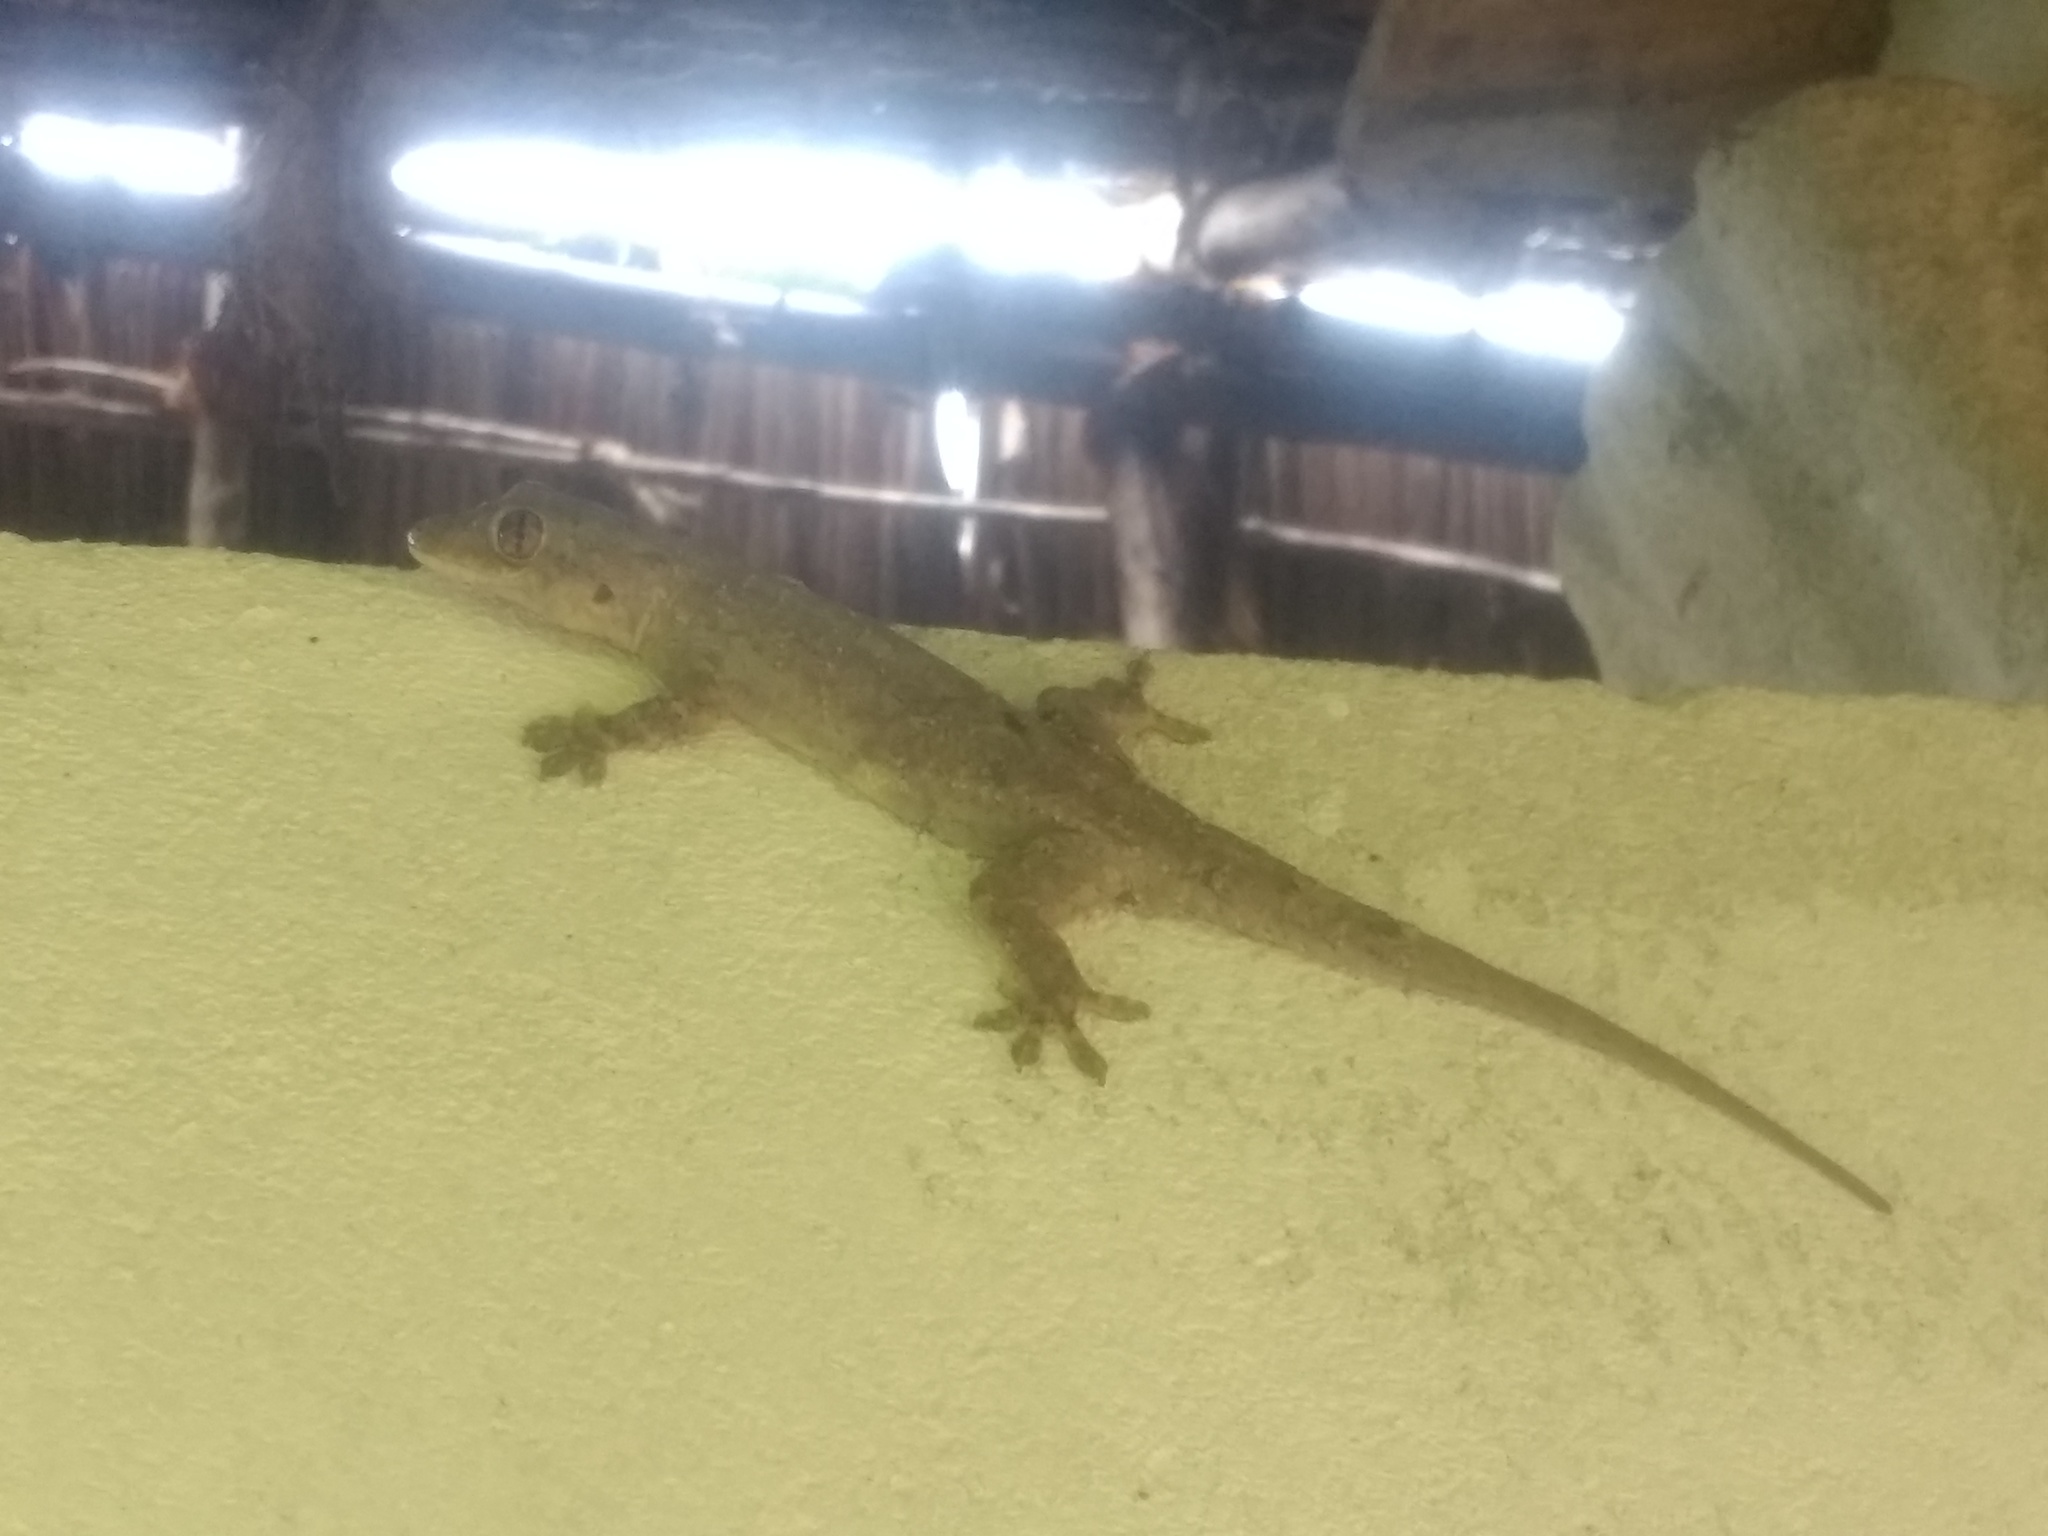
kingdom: Animalia
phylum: Chordata
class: Squamata
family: Gekkonidae
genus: Hemidactylus
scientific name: Hemidactylus platycephalus
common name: Baobab gecko
